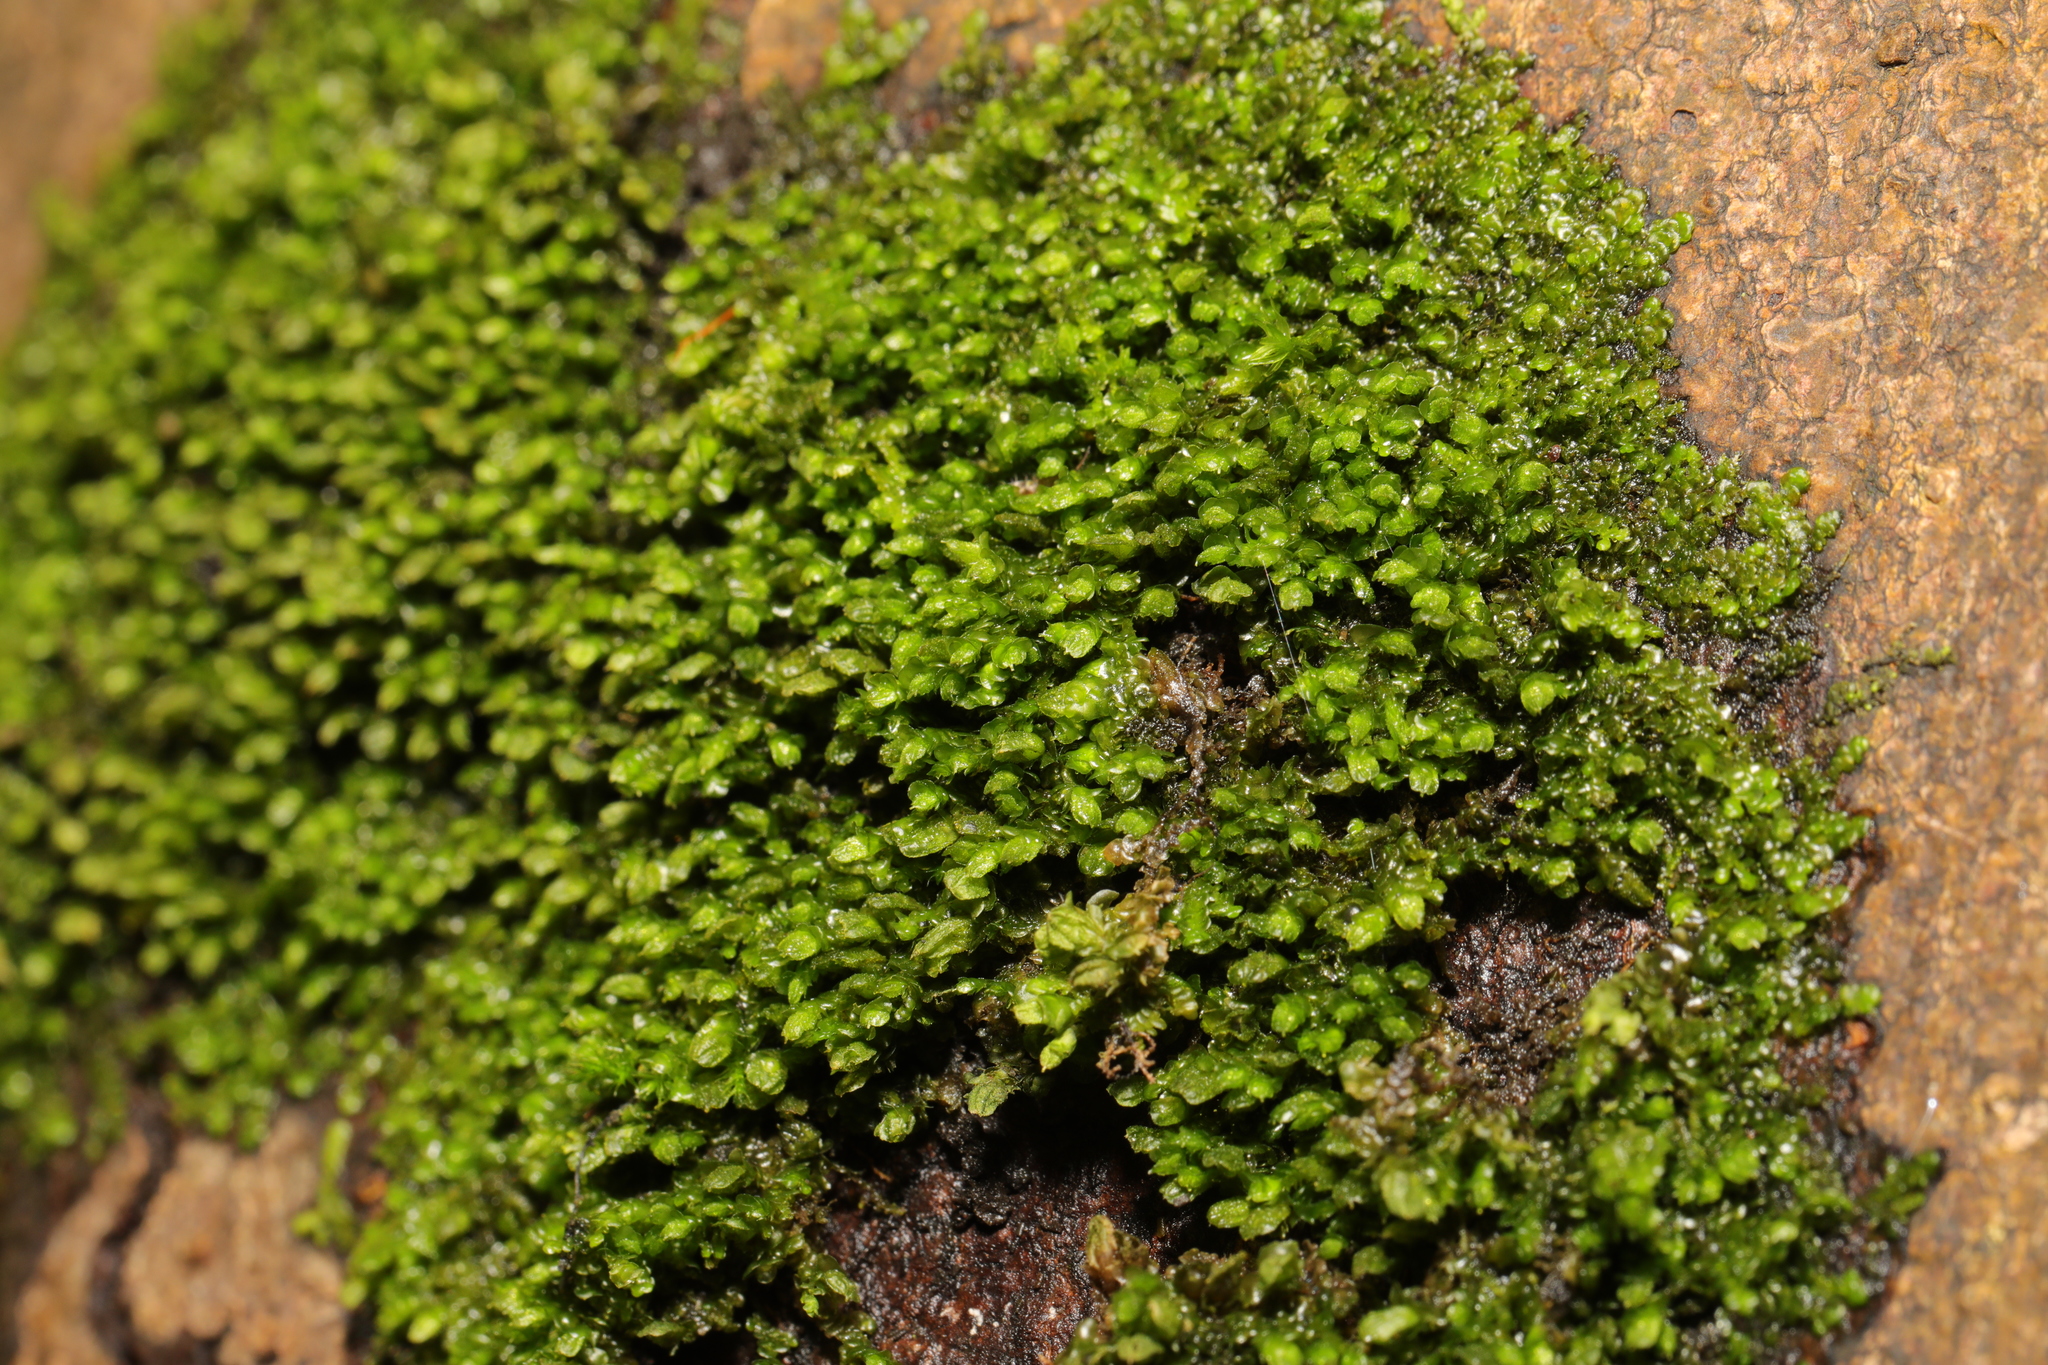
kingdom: Plantae
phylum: Marchantiophyta
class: Jungermanniopsida
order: Porellales
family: Frullaniaceae
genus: Frullania
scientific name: Frullania dilatata
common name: Dilated scalewort
